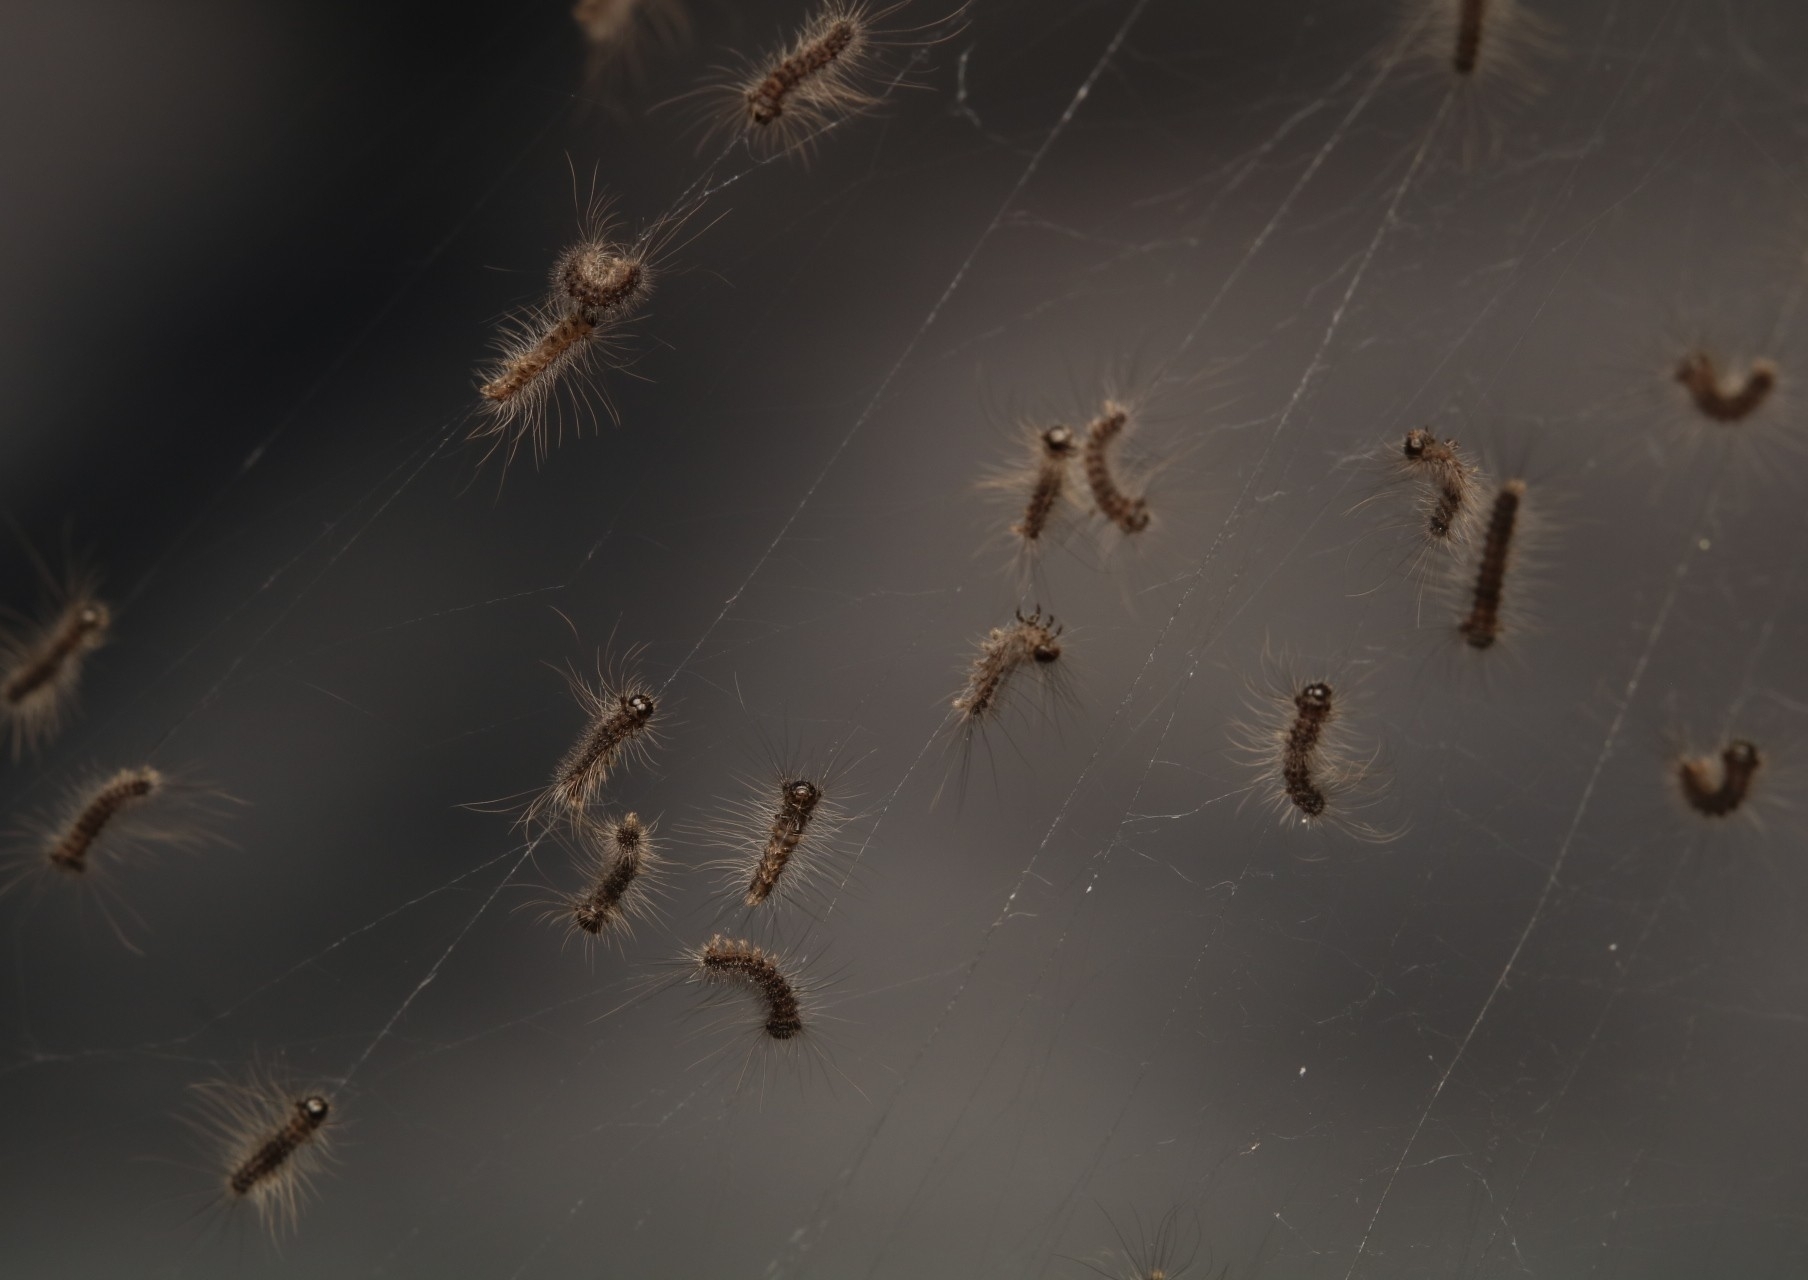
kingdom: Animalia
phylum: Arthropoda
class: Insecta
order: Lepidoptera
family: Erebidae
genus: Lymantria
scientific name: Lymantria dispar
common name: Gypsy moth
